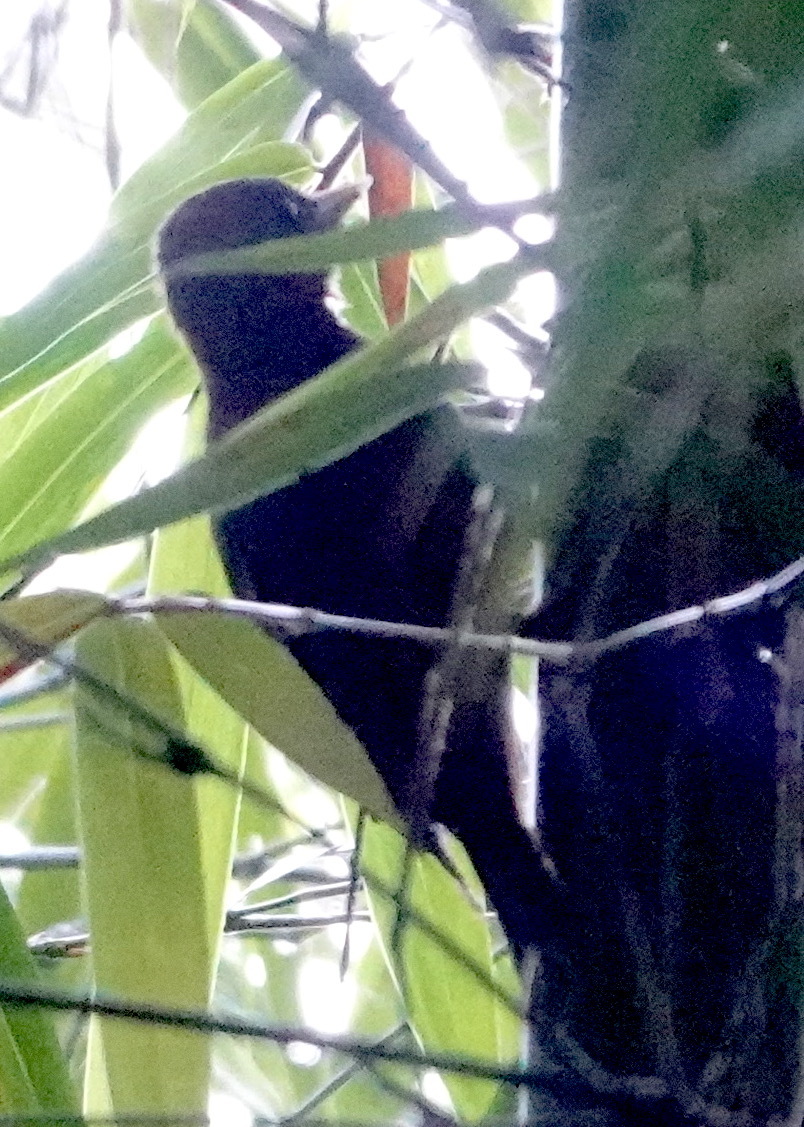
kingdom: Animalia
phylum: Chordata
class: Aves
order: Piciformes
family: Picidae
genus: Gecinulus
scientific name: Gecinulus viridis
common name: Bamboo woodpecker
